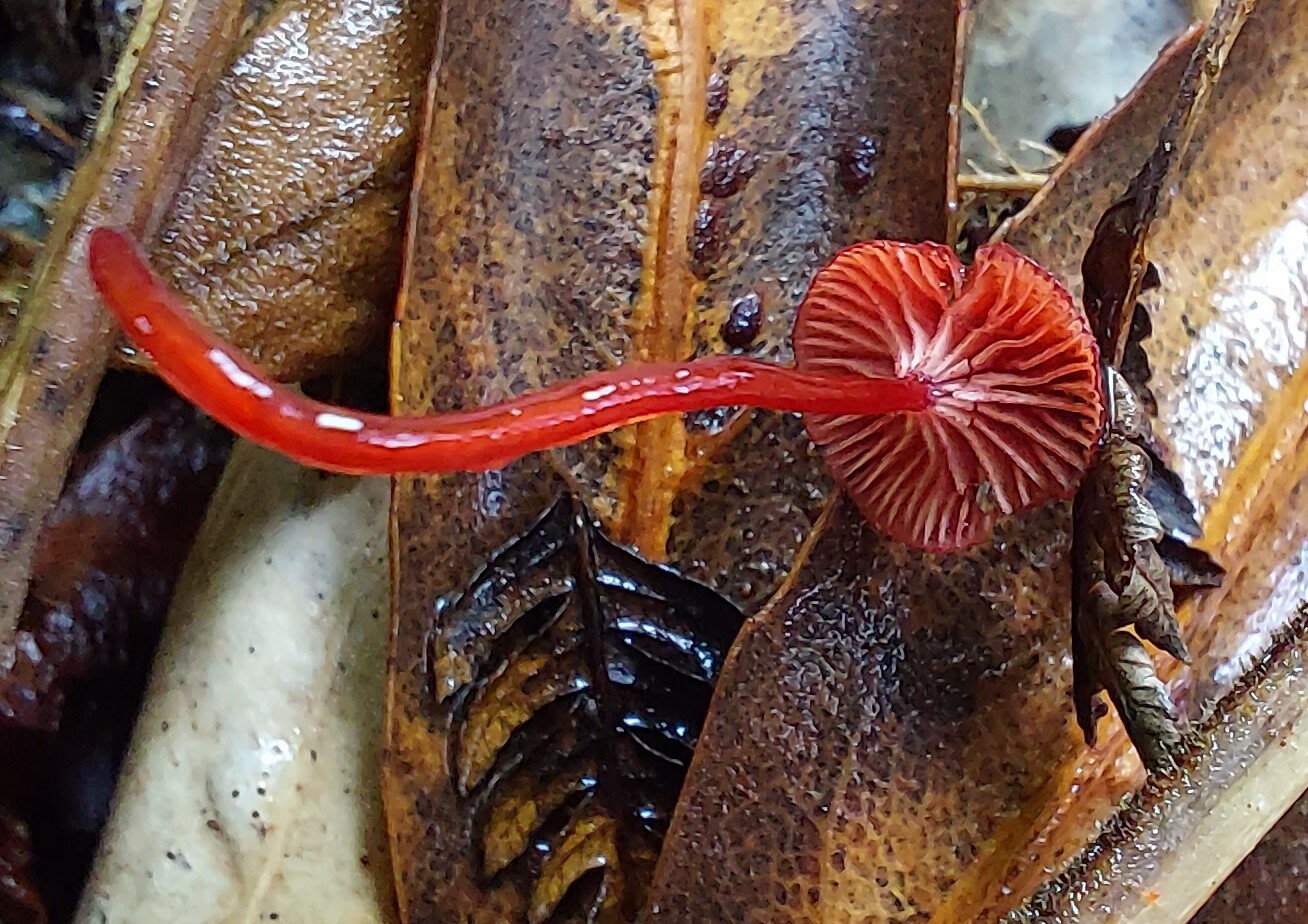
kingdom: Fungi
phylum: Basidiomycota
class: Agaricomycetes
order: Agaricales
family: Mycenaceae
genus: Cruentomycena
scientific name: Cruentomycena viscidocruenta
